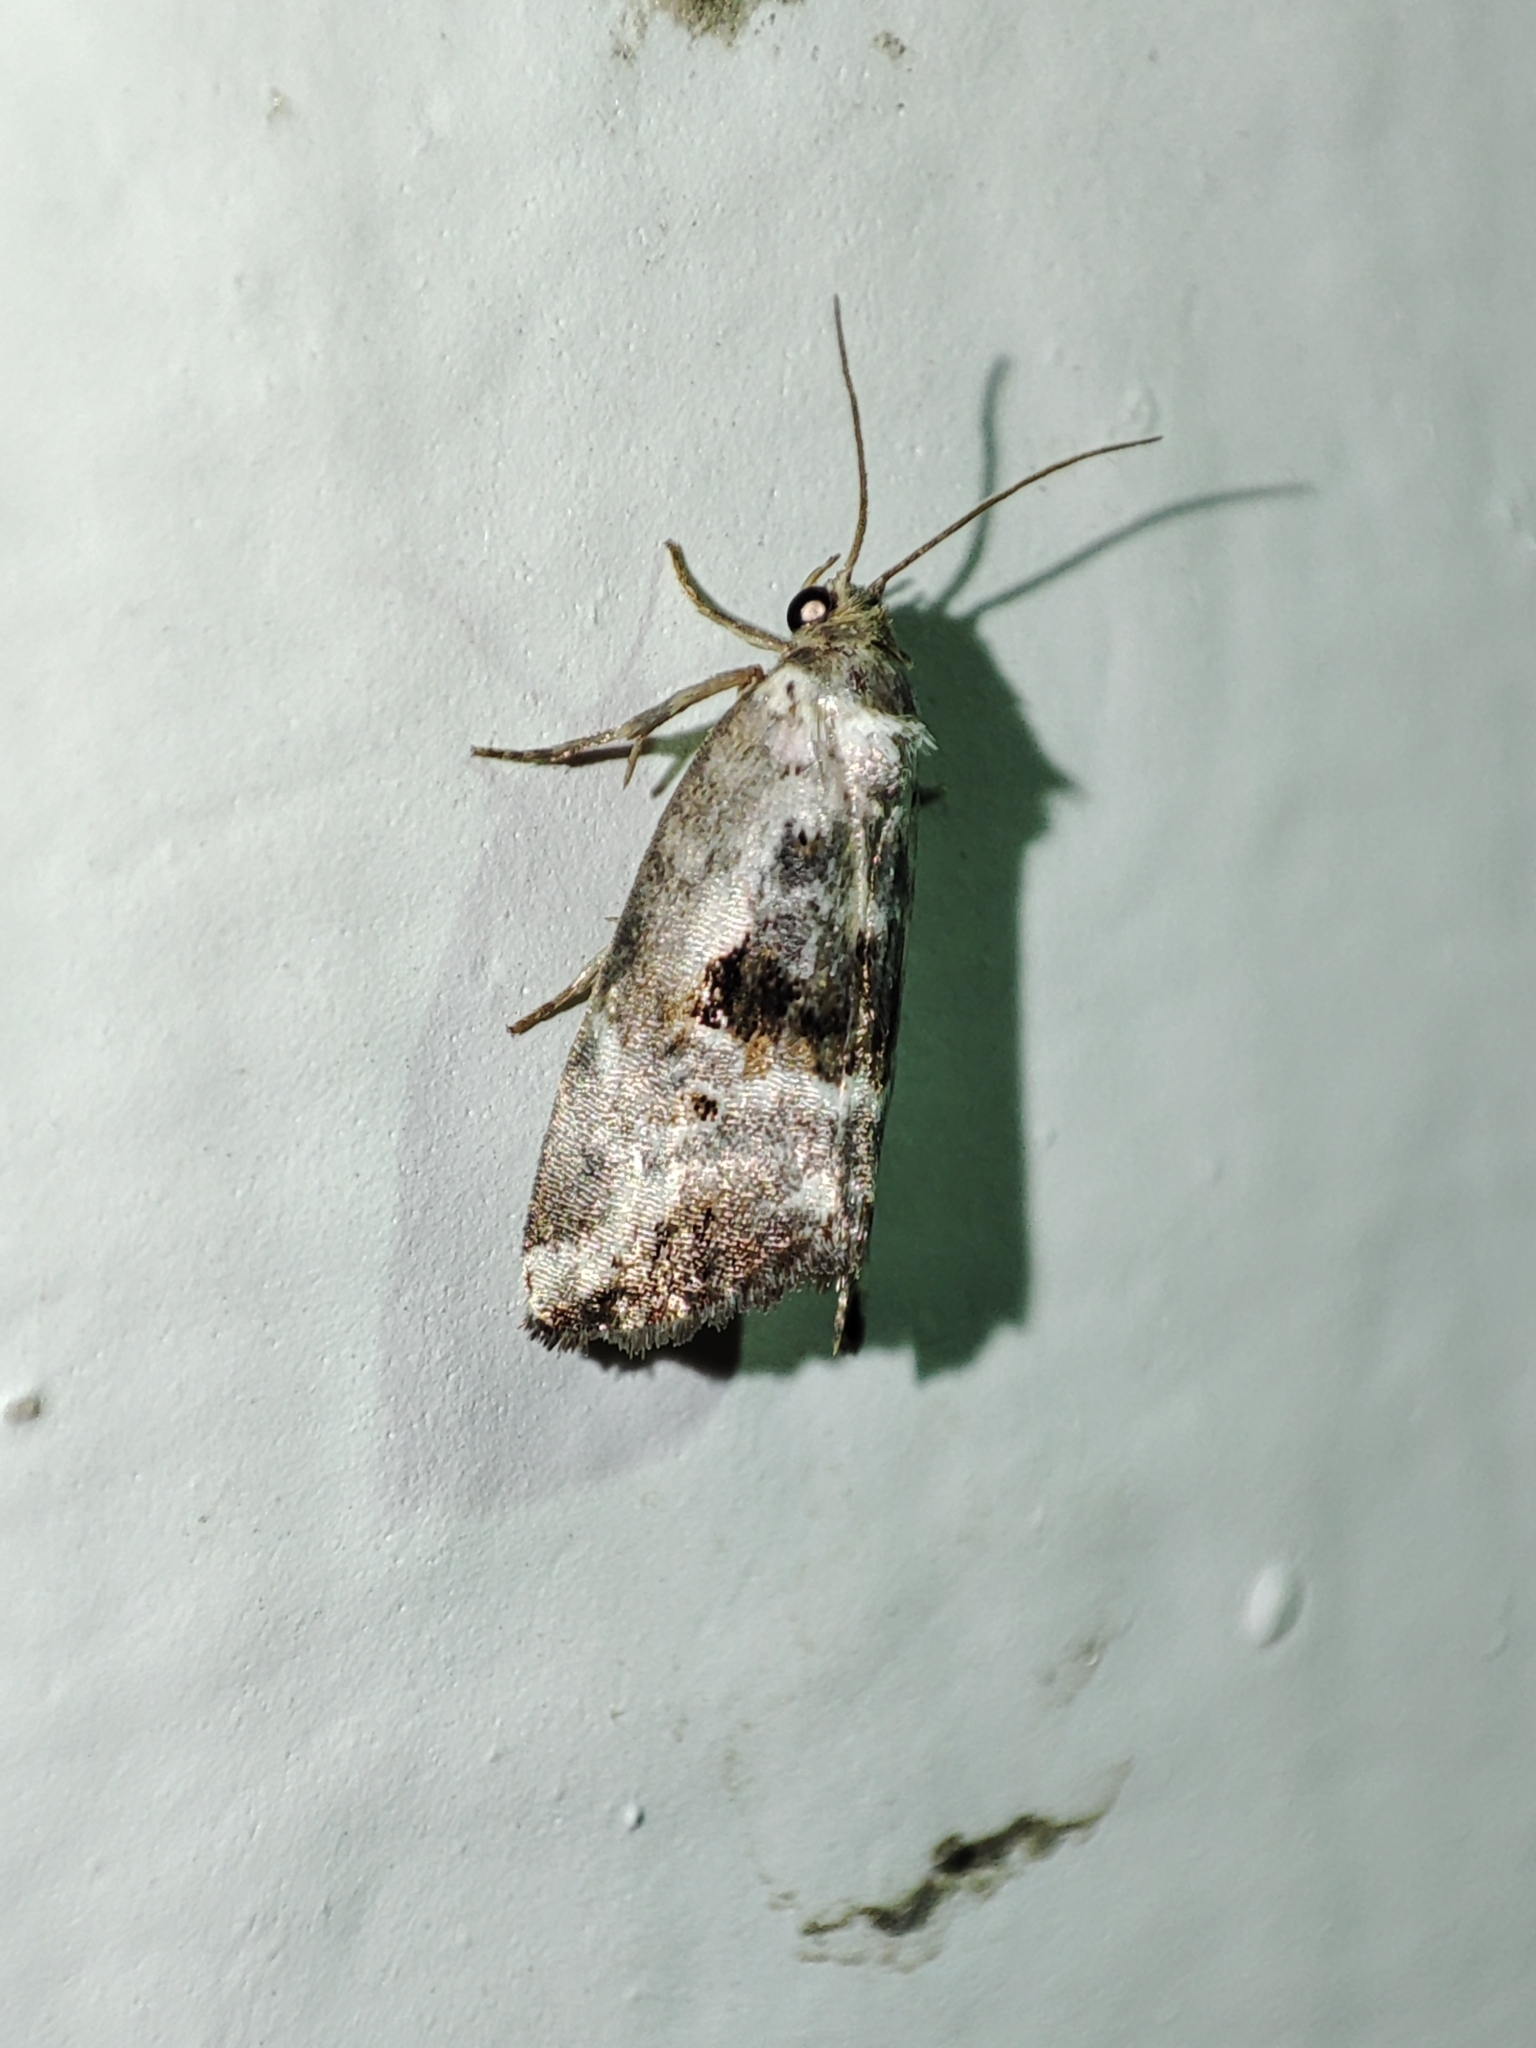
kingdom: Animalia
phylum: Arthropoda
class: Insecta
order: Lepidoptera
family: Noctuidae
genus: Elaphria
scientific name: Elaphria venustula
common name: Rosy marbled
